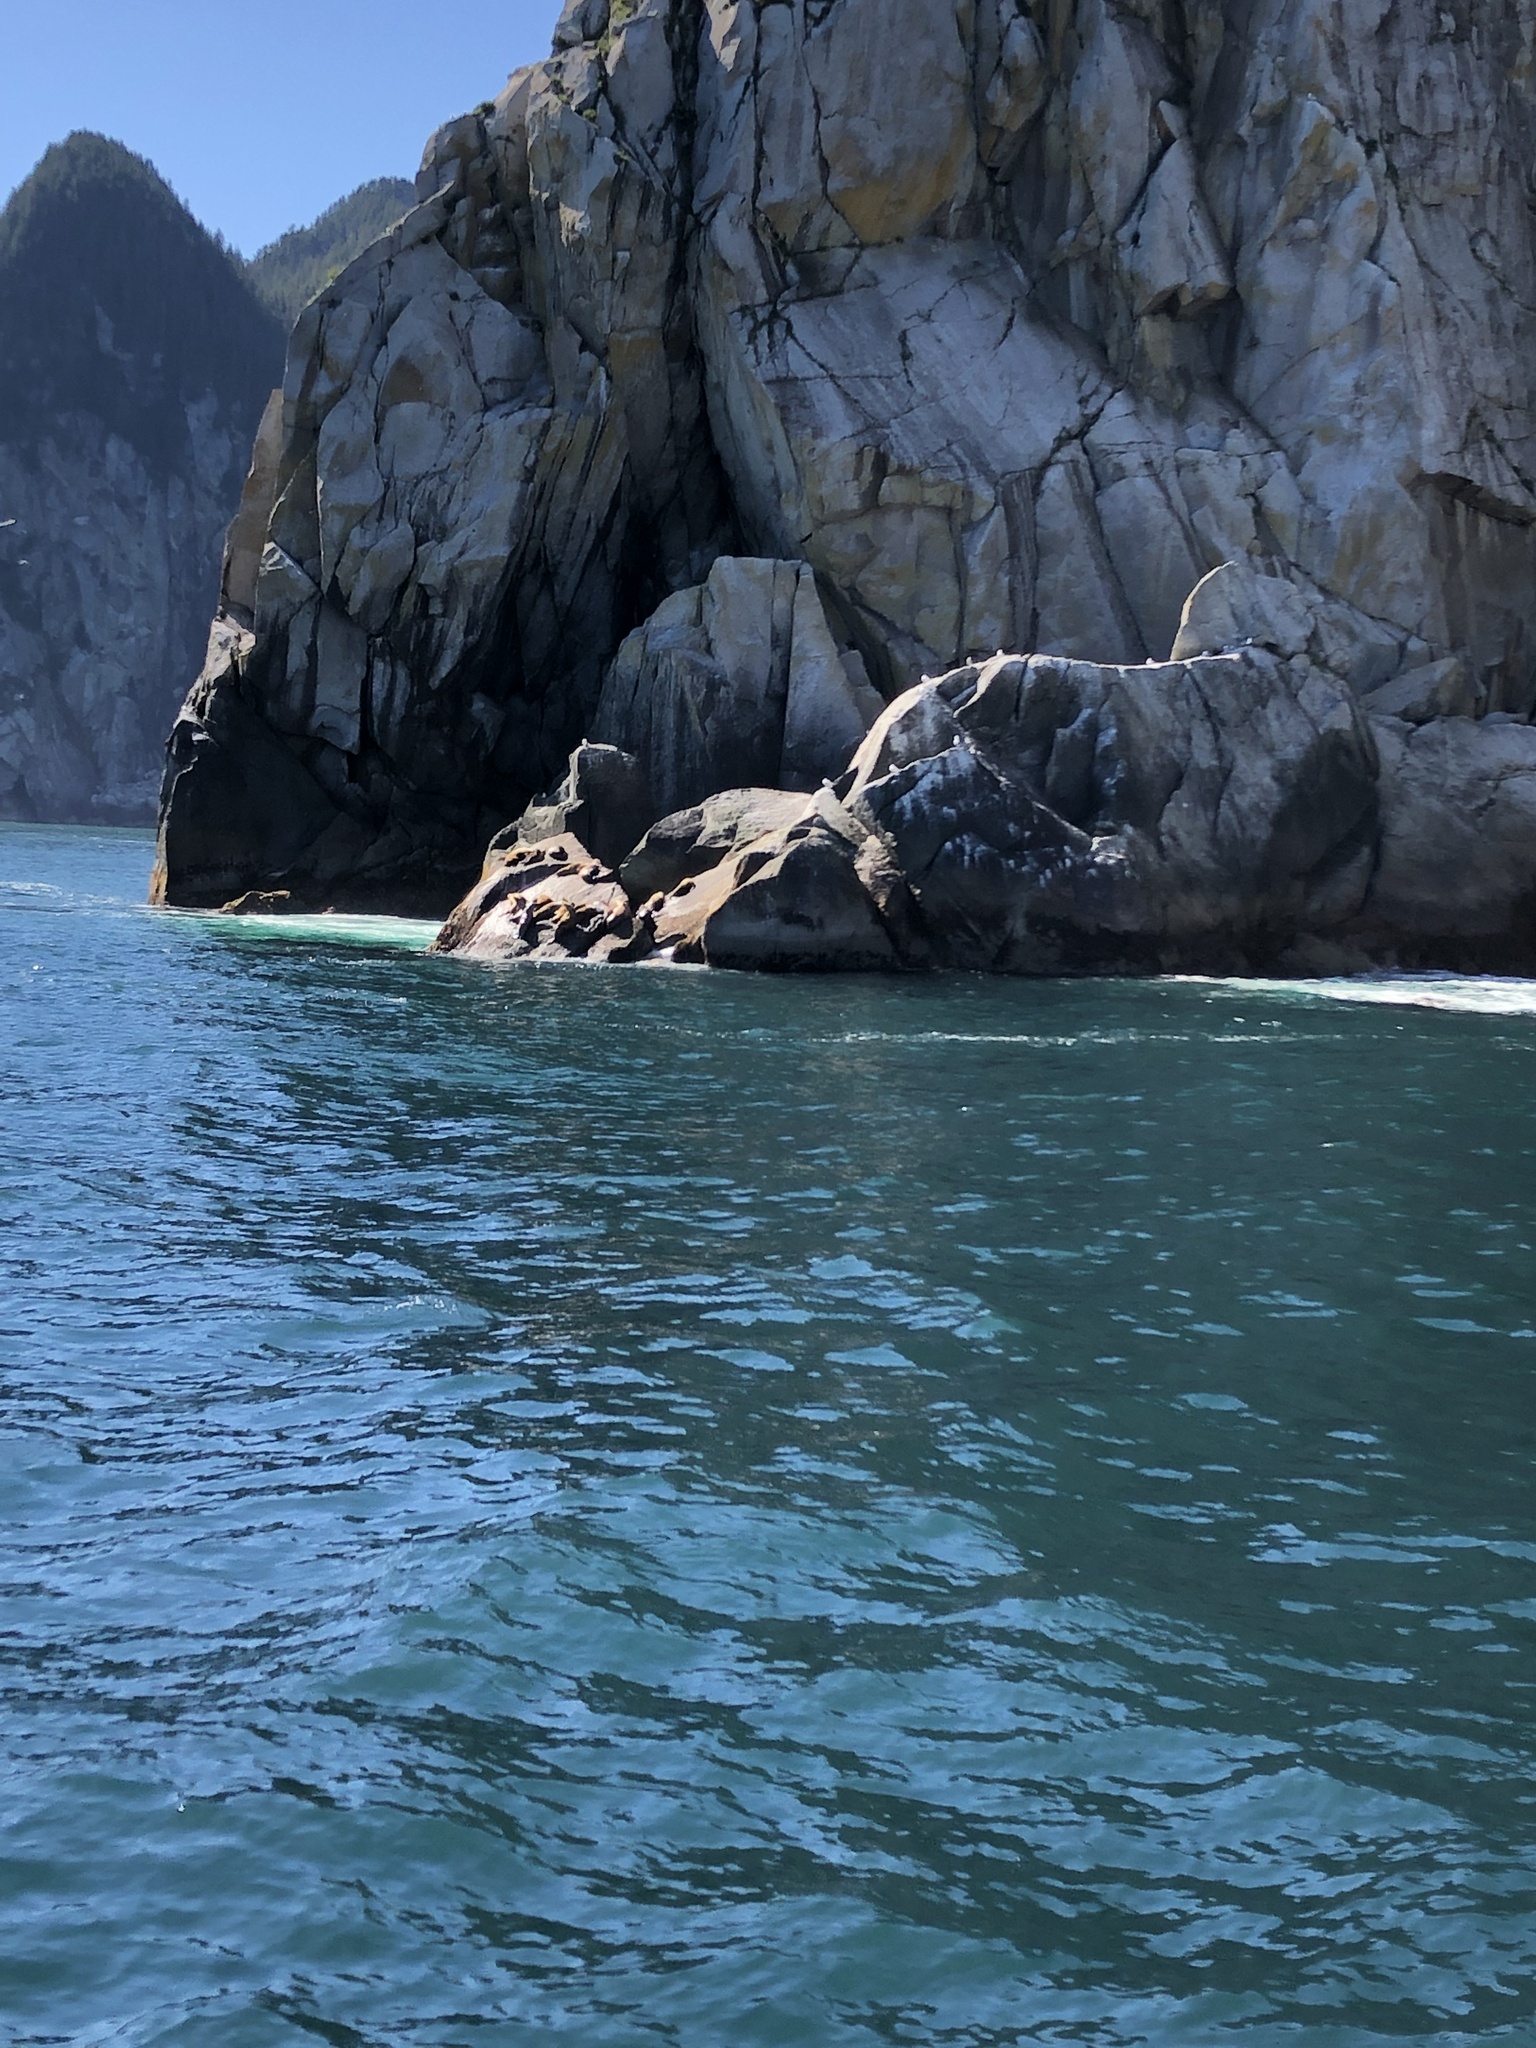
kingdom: Animalia
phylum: Chordata
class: Mammalia
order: Carnivora
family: Otariidae
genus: Eumetopias
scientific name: Eumetopias jubatus
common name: Steller sea lion
